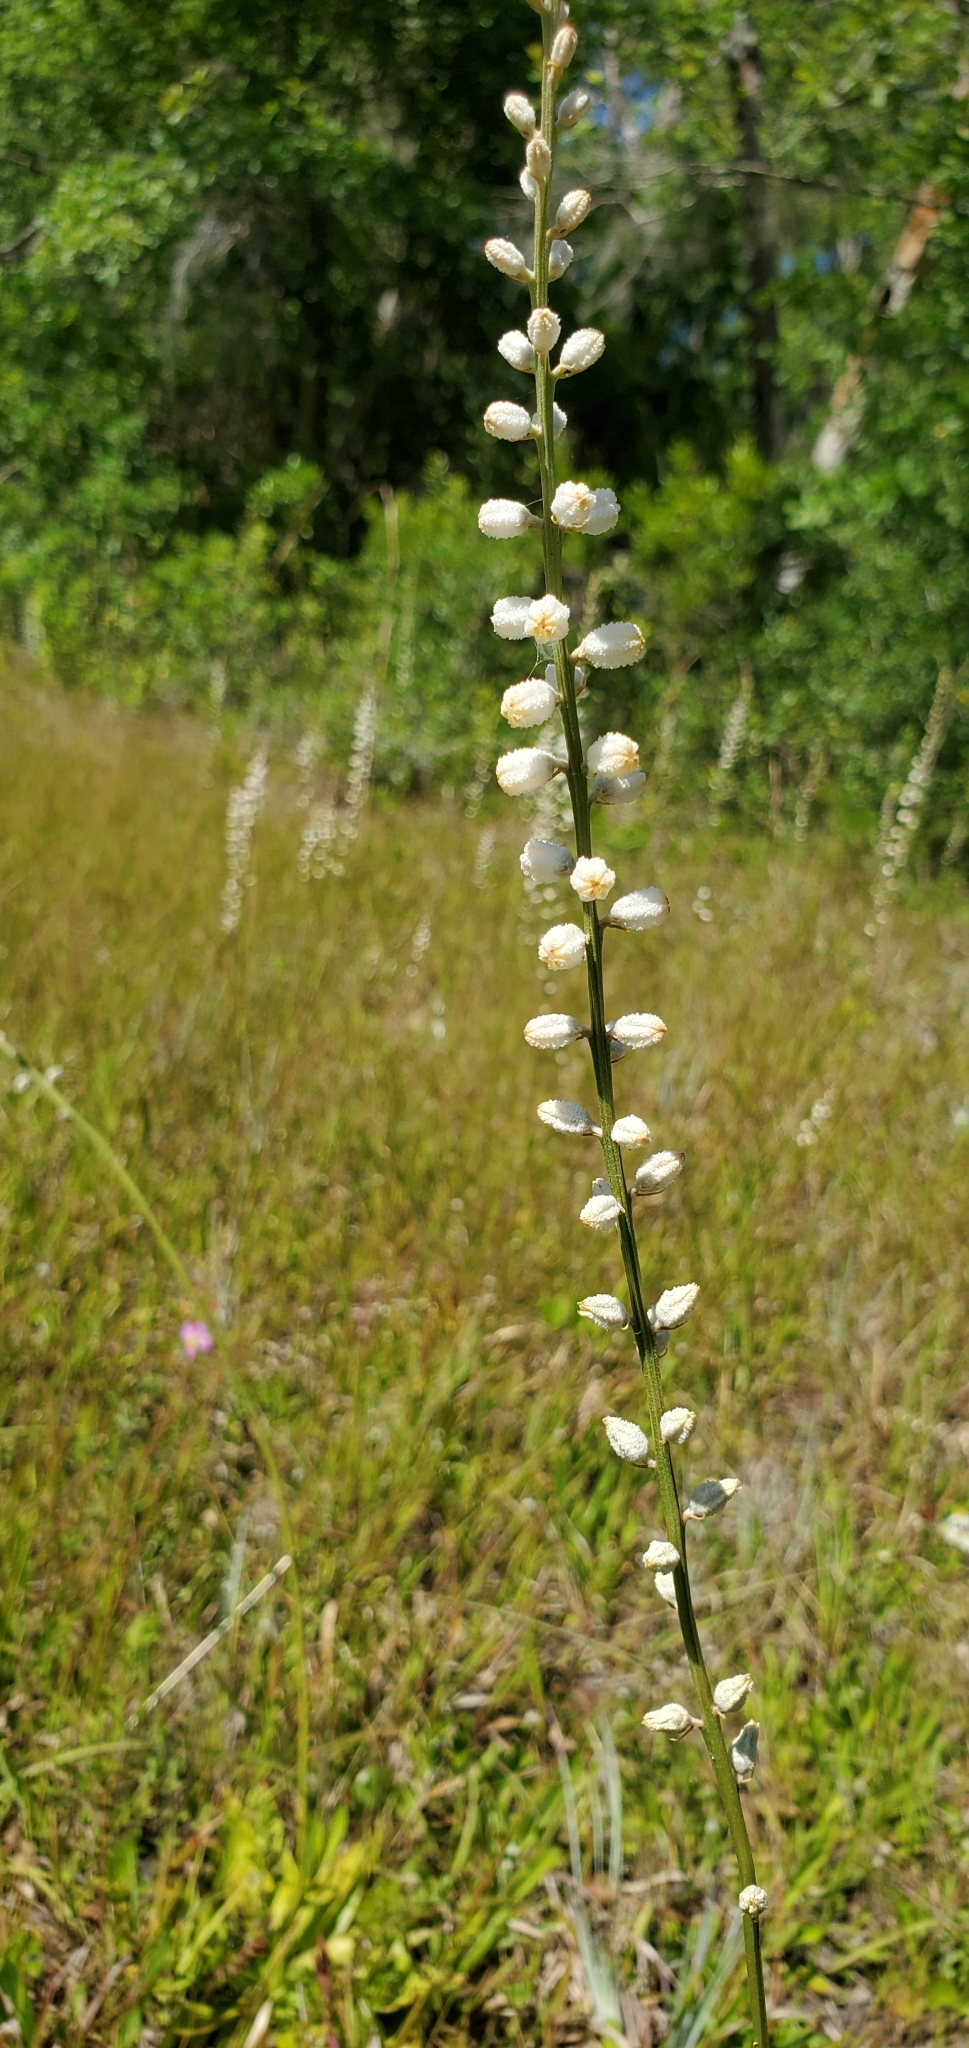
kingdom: Plantae
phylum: Tracheophyta
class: Liliopsida
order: Dioscoreales
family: Nartheciaceae
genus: Aletris
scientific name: Aletris obovata
